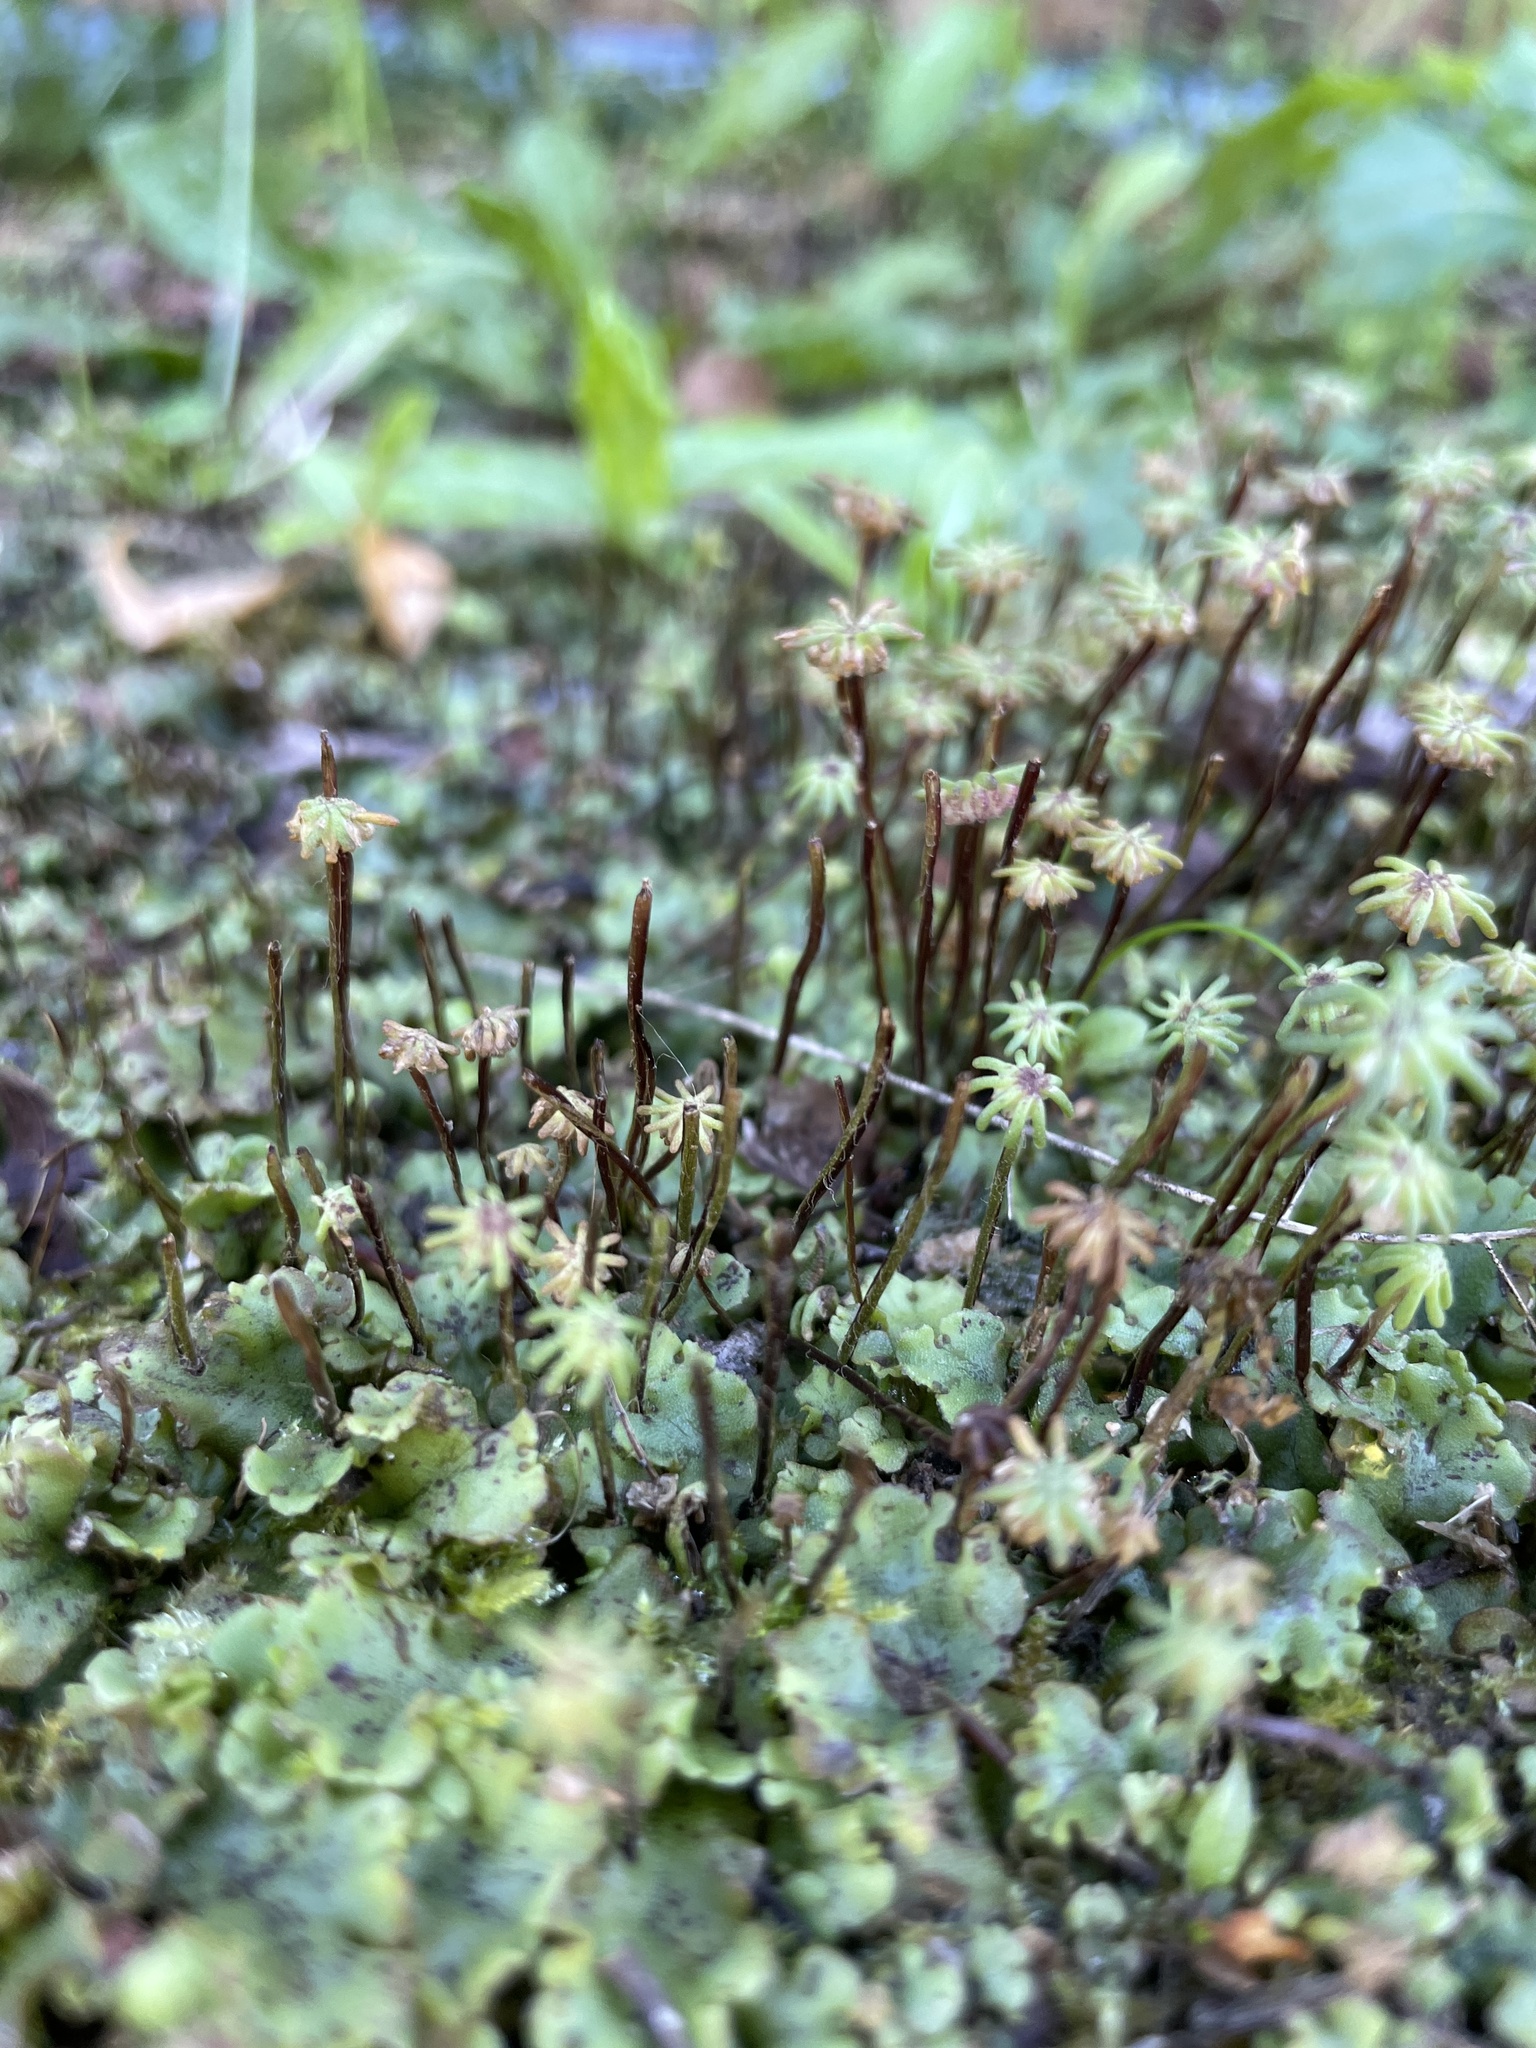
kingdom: Plantae
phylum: Marchantiophyta
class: Marchantiopsida
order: Marchantiales
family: Marchantiaceae
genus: Marchantia
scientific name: Marchantia polymorpha
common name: Common liverwort
